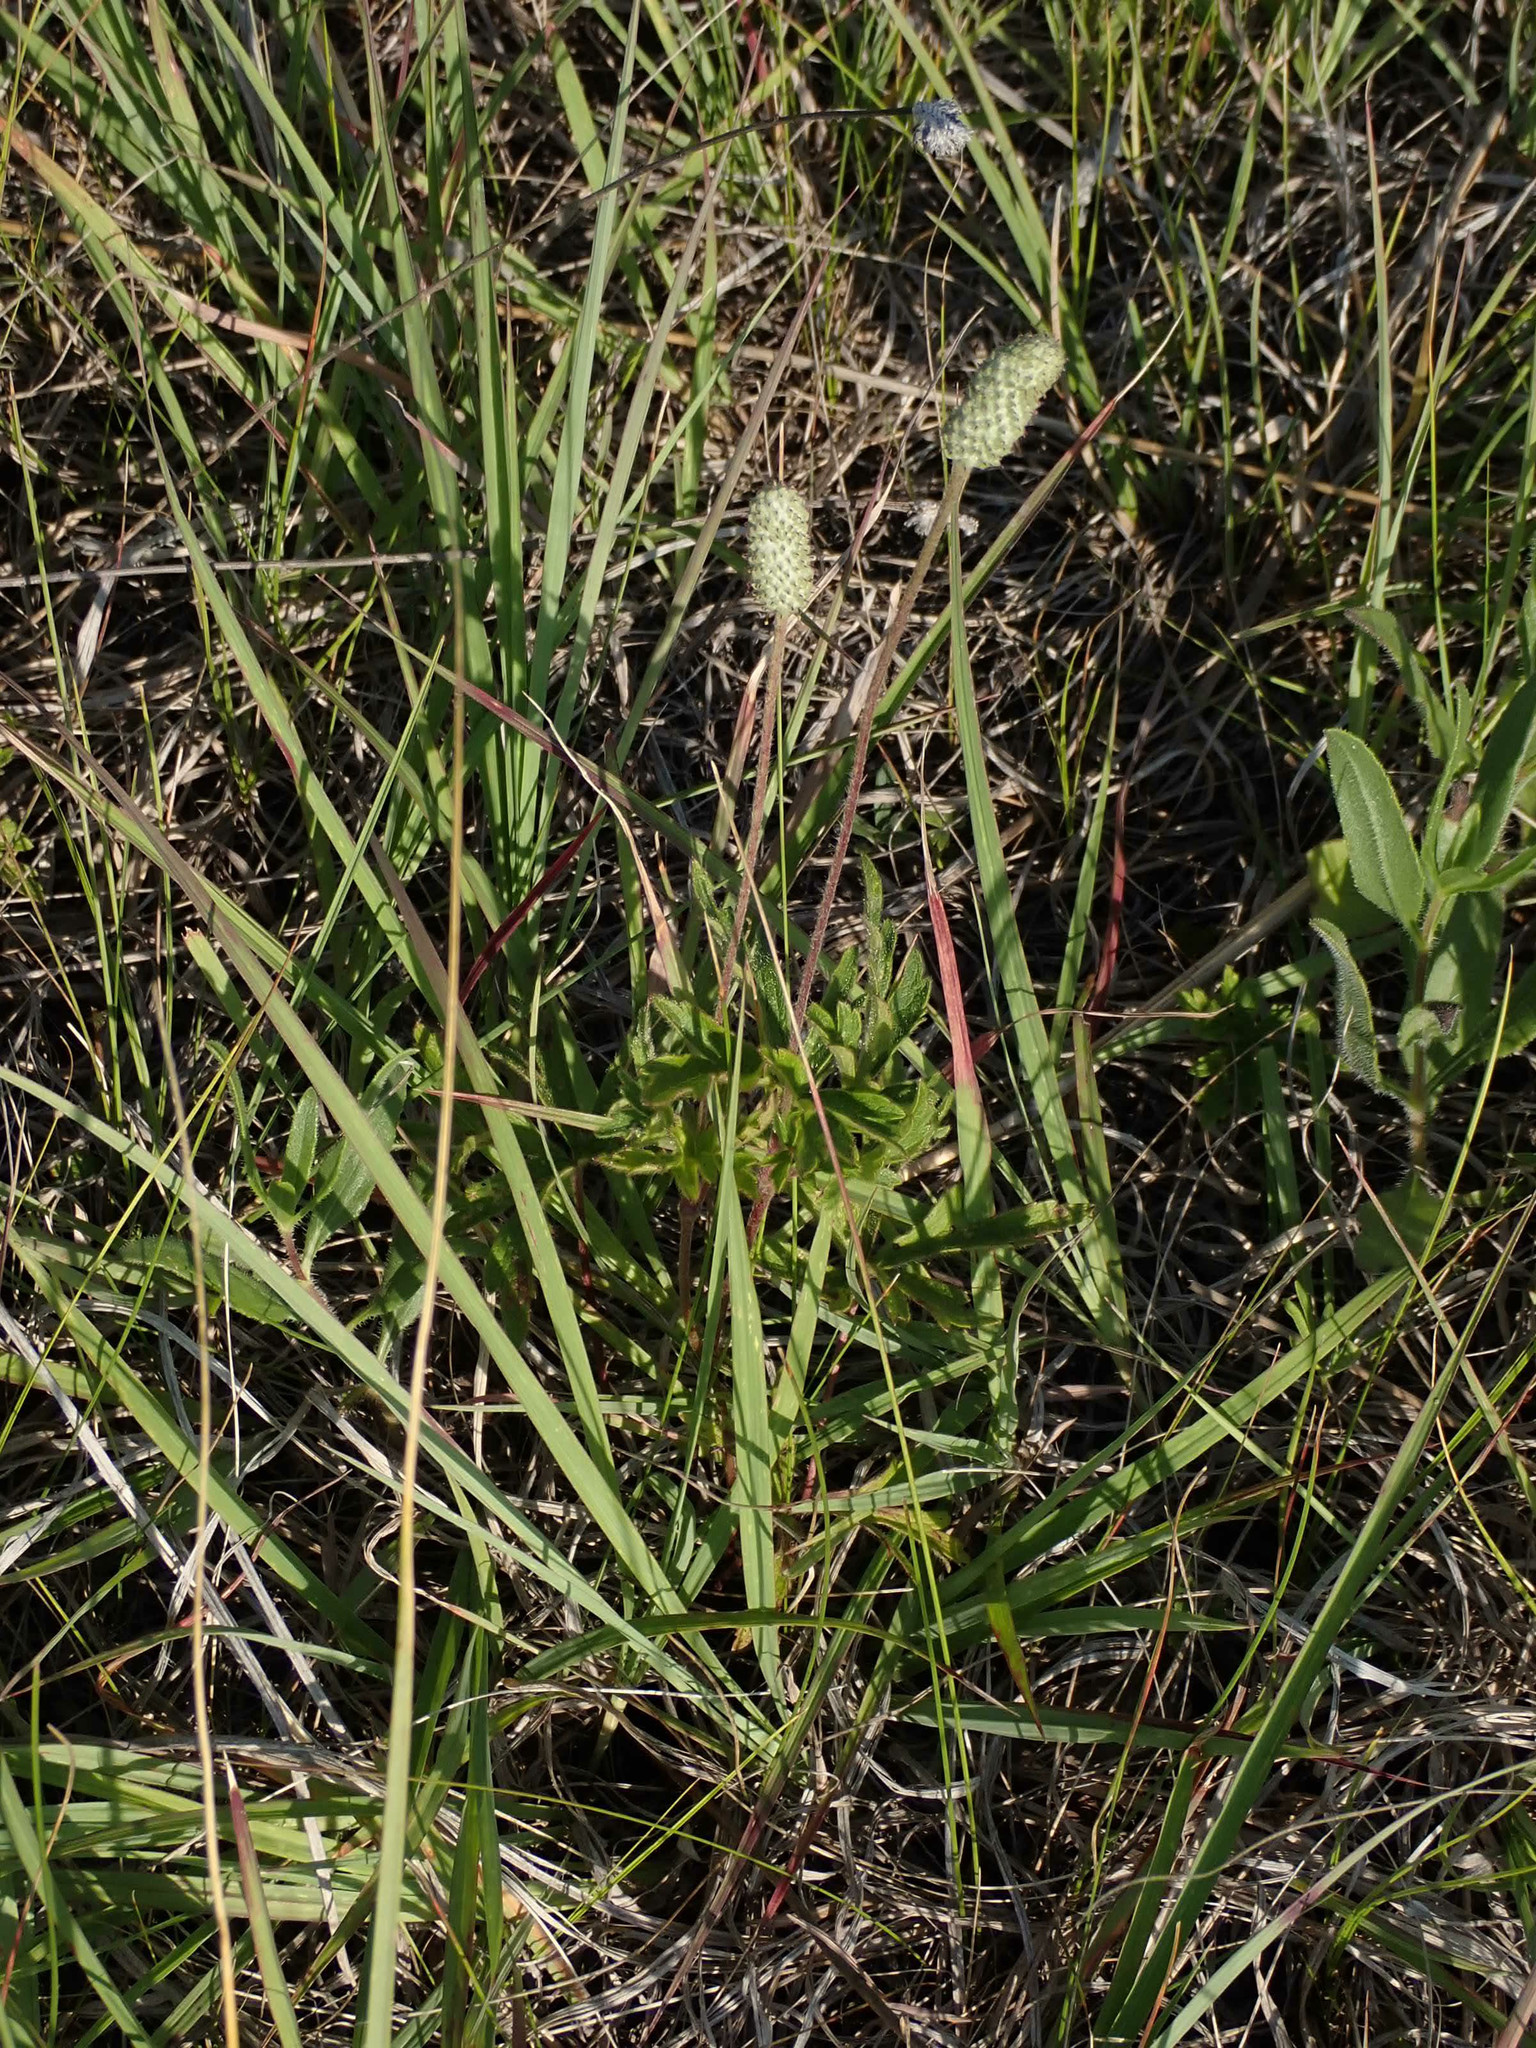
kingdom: Plantae
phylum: Tracheophyta
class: Magnoliopsida
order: Ranunculales
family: Ranunculaceae
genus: Anemone
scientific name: Anemone cylindrica
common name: Candle anemone
